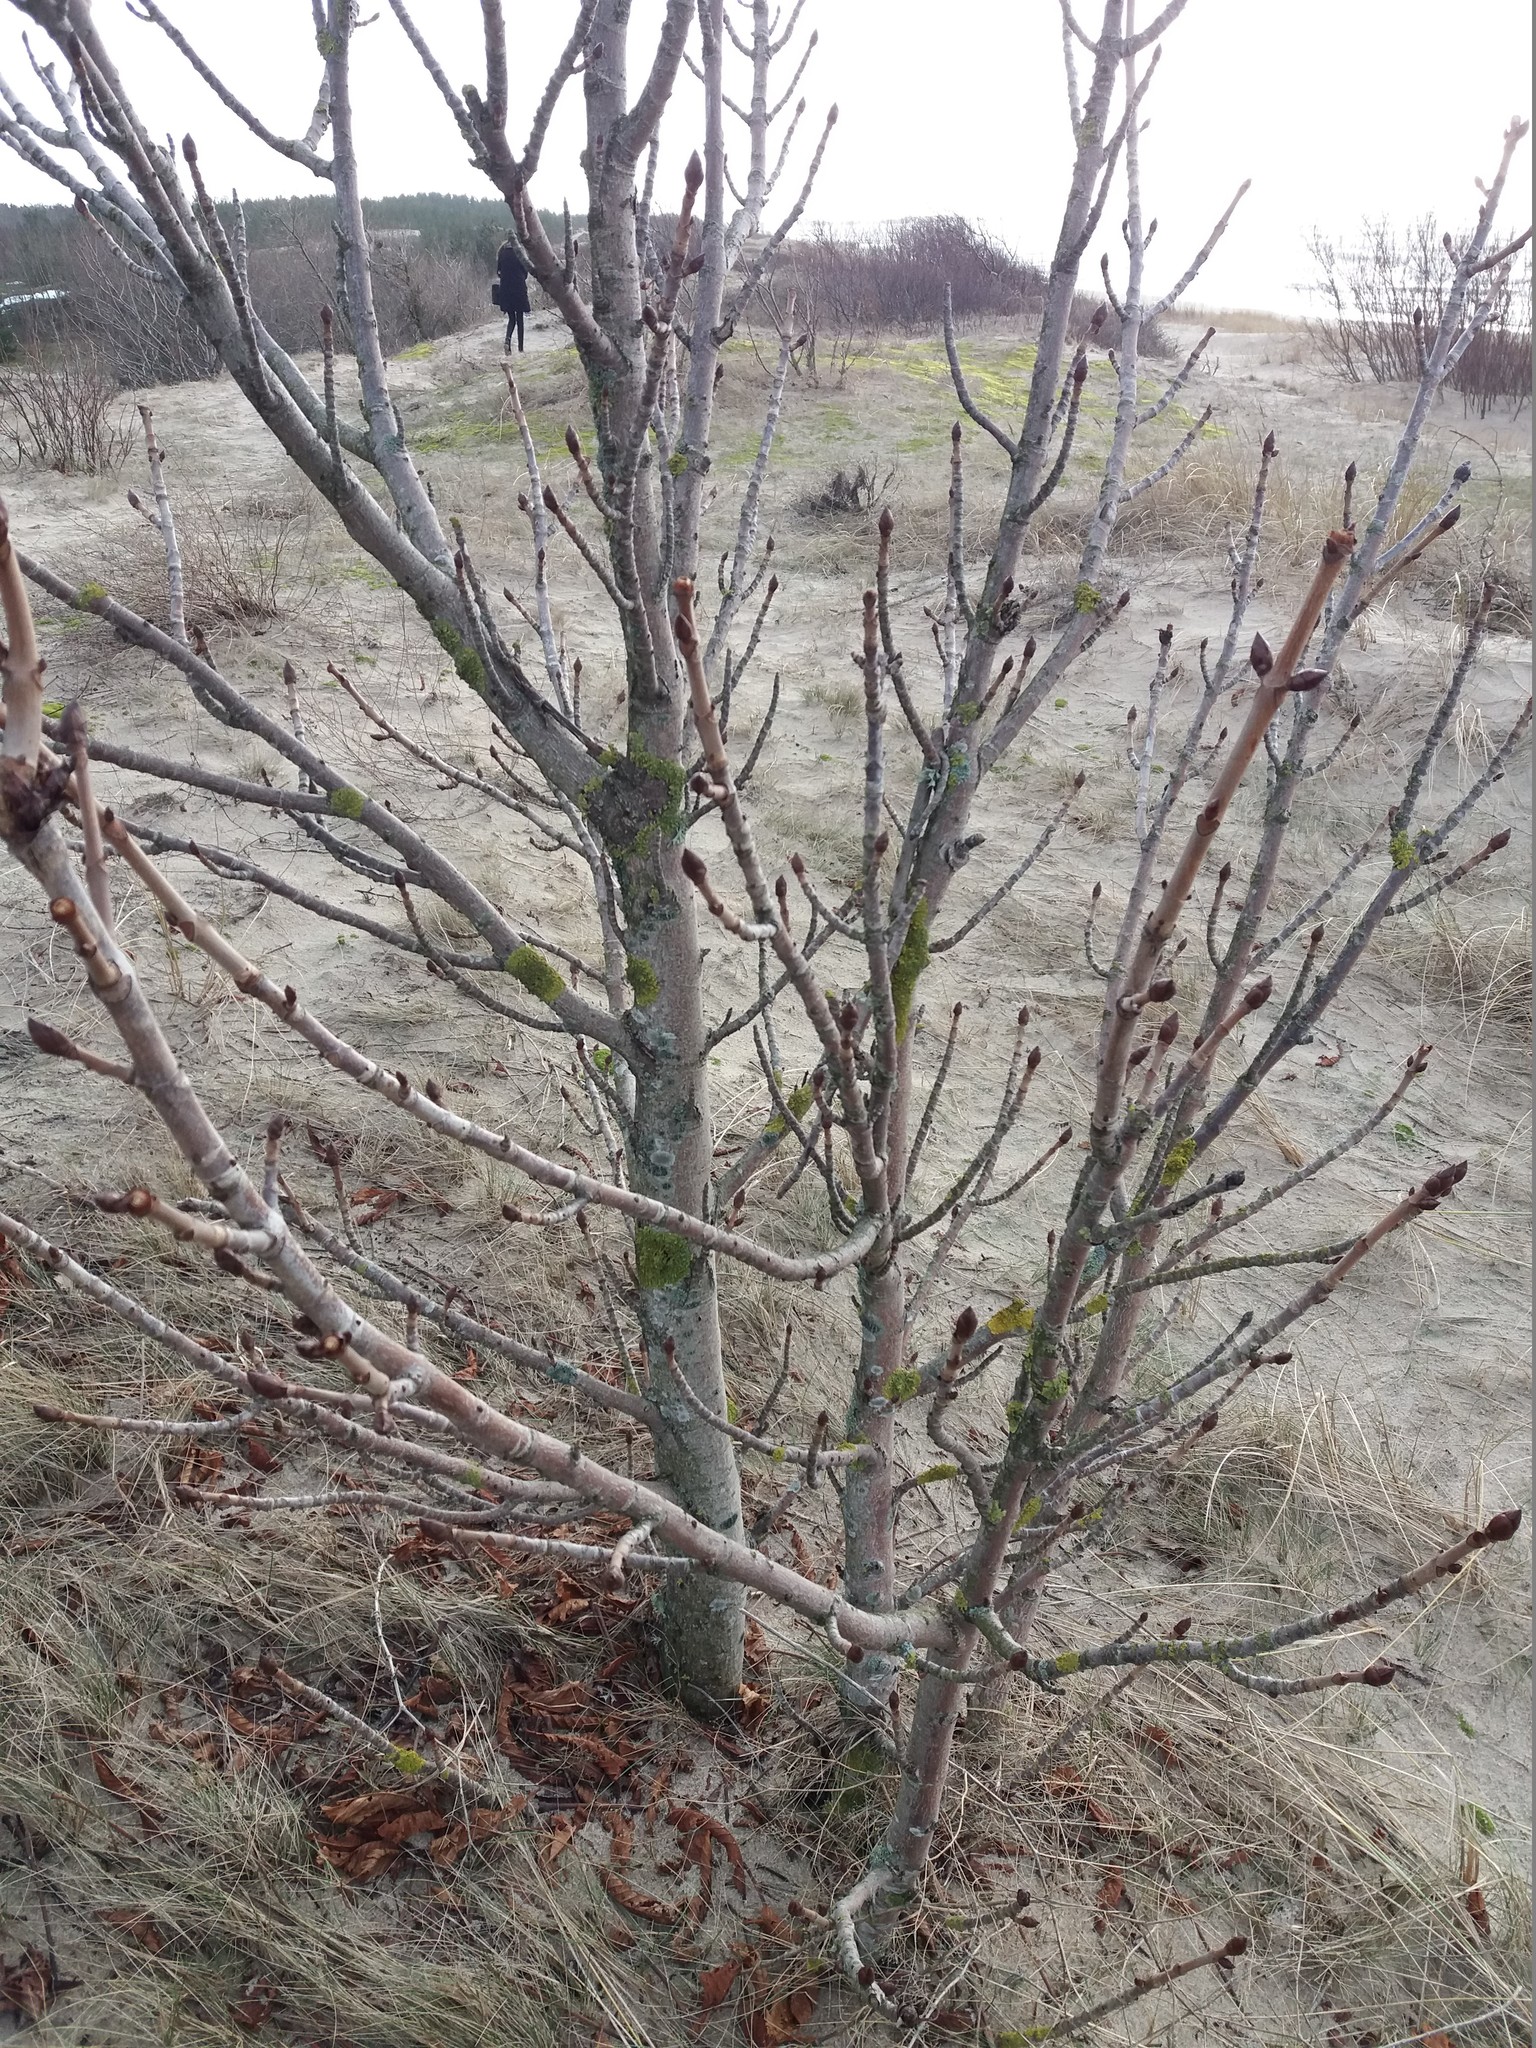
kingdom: Plantae
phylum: Tracheophyta
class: Magnoliopsida
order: Sapindales
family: Sapindaceae
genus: Aesculus
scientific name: Aesculus hippocastanum
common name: Horse-chestnut
